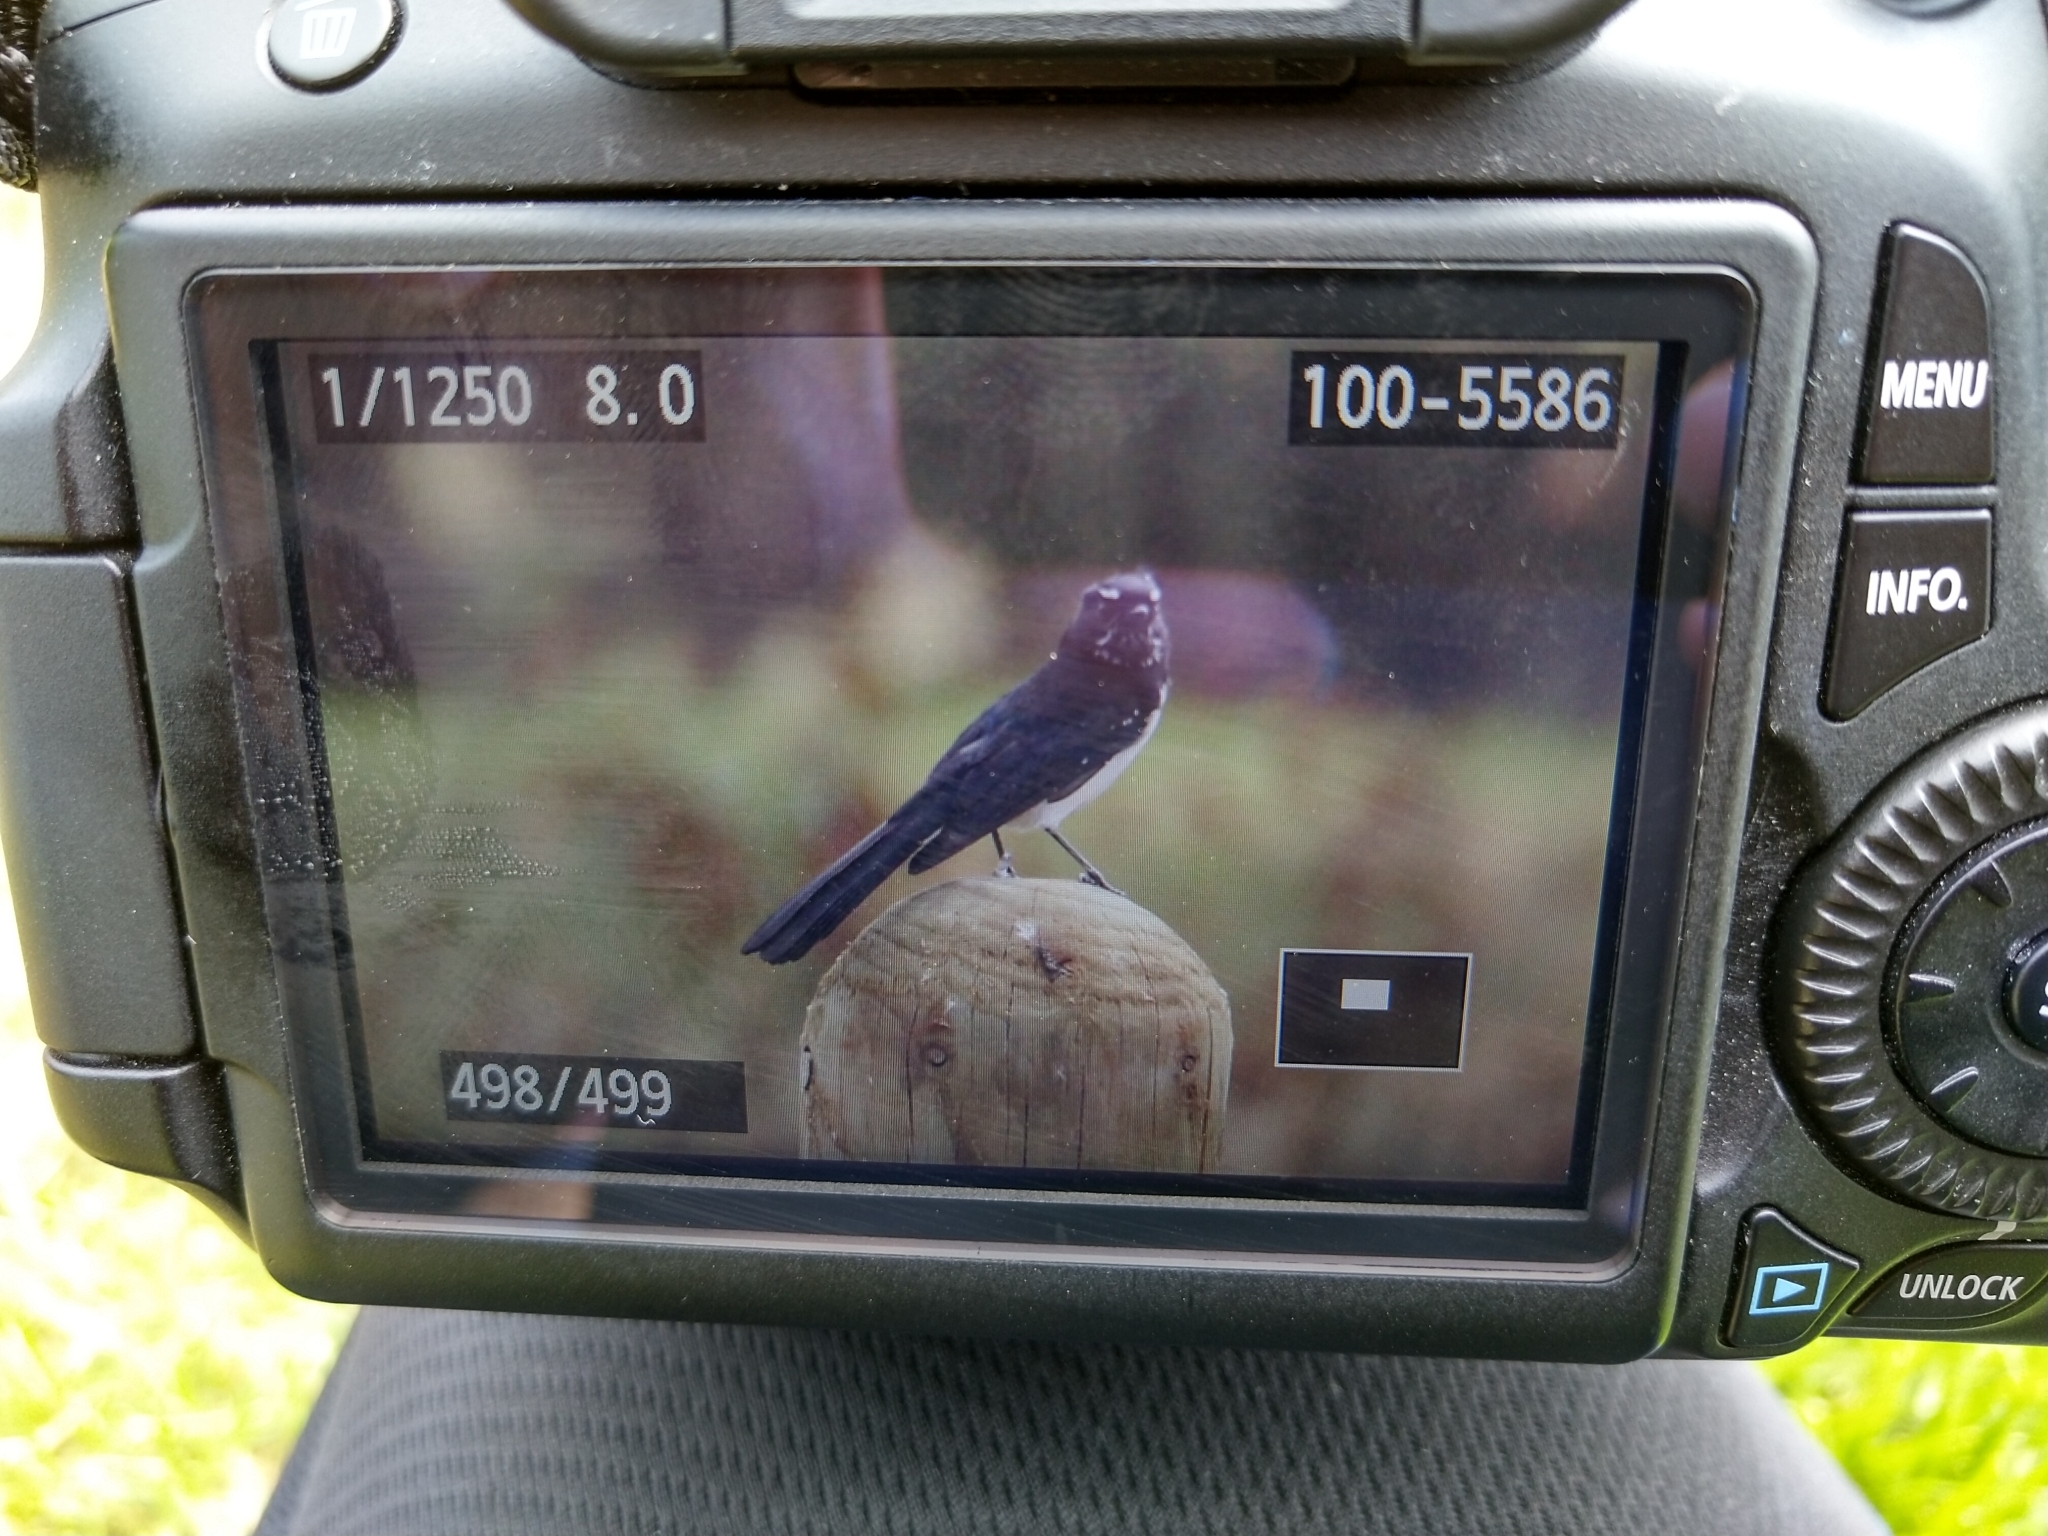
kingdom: Animalia
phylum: Chordata
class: Aves
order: Passeriformes
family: Rhipiduridae
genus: Rhipidura
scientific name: Rhipidura leucophrys
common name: Willie wagtail
